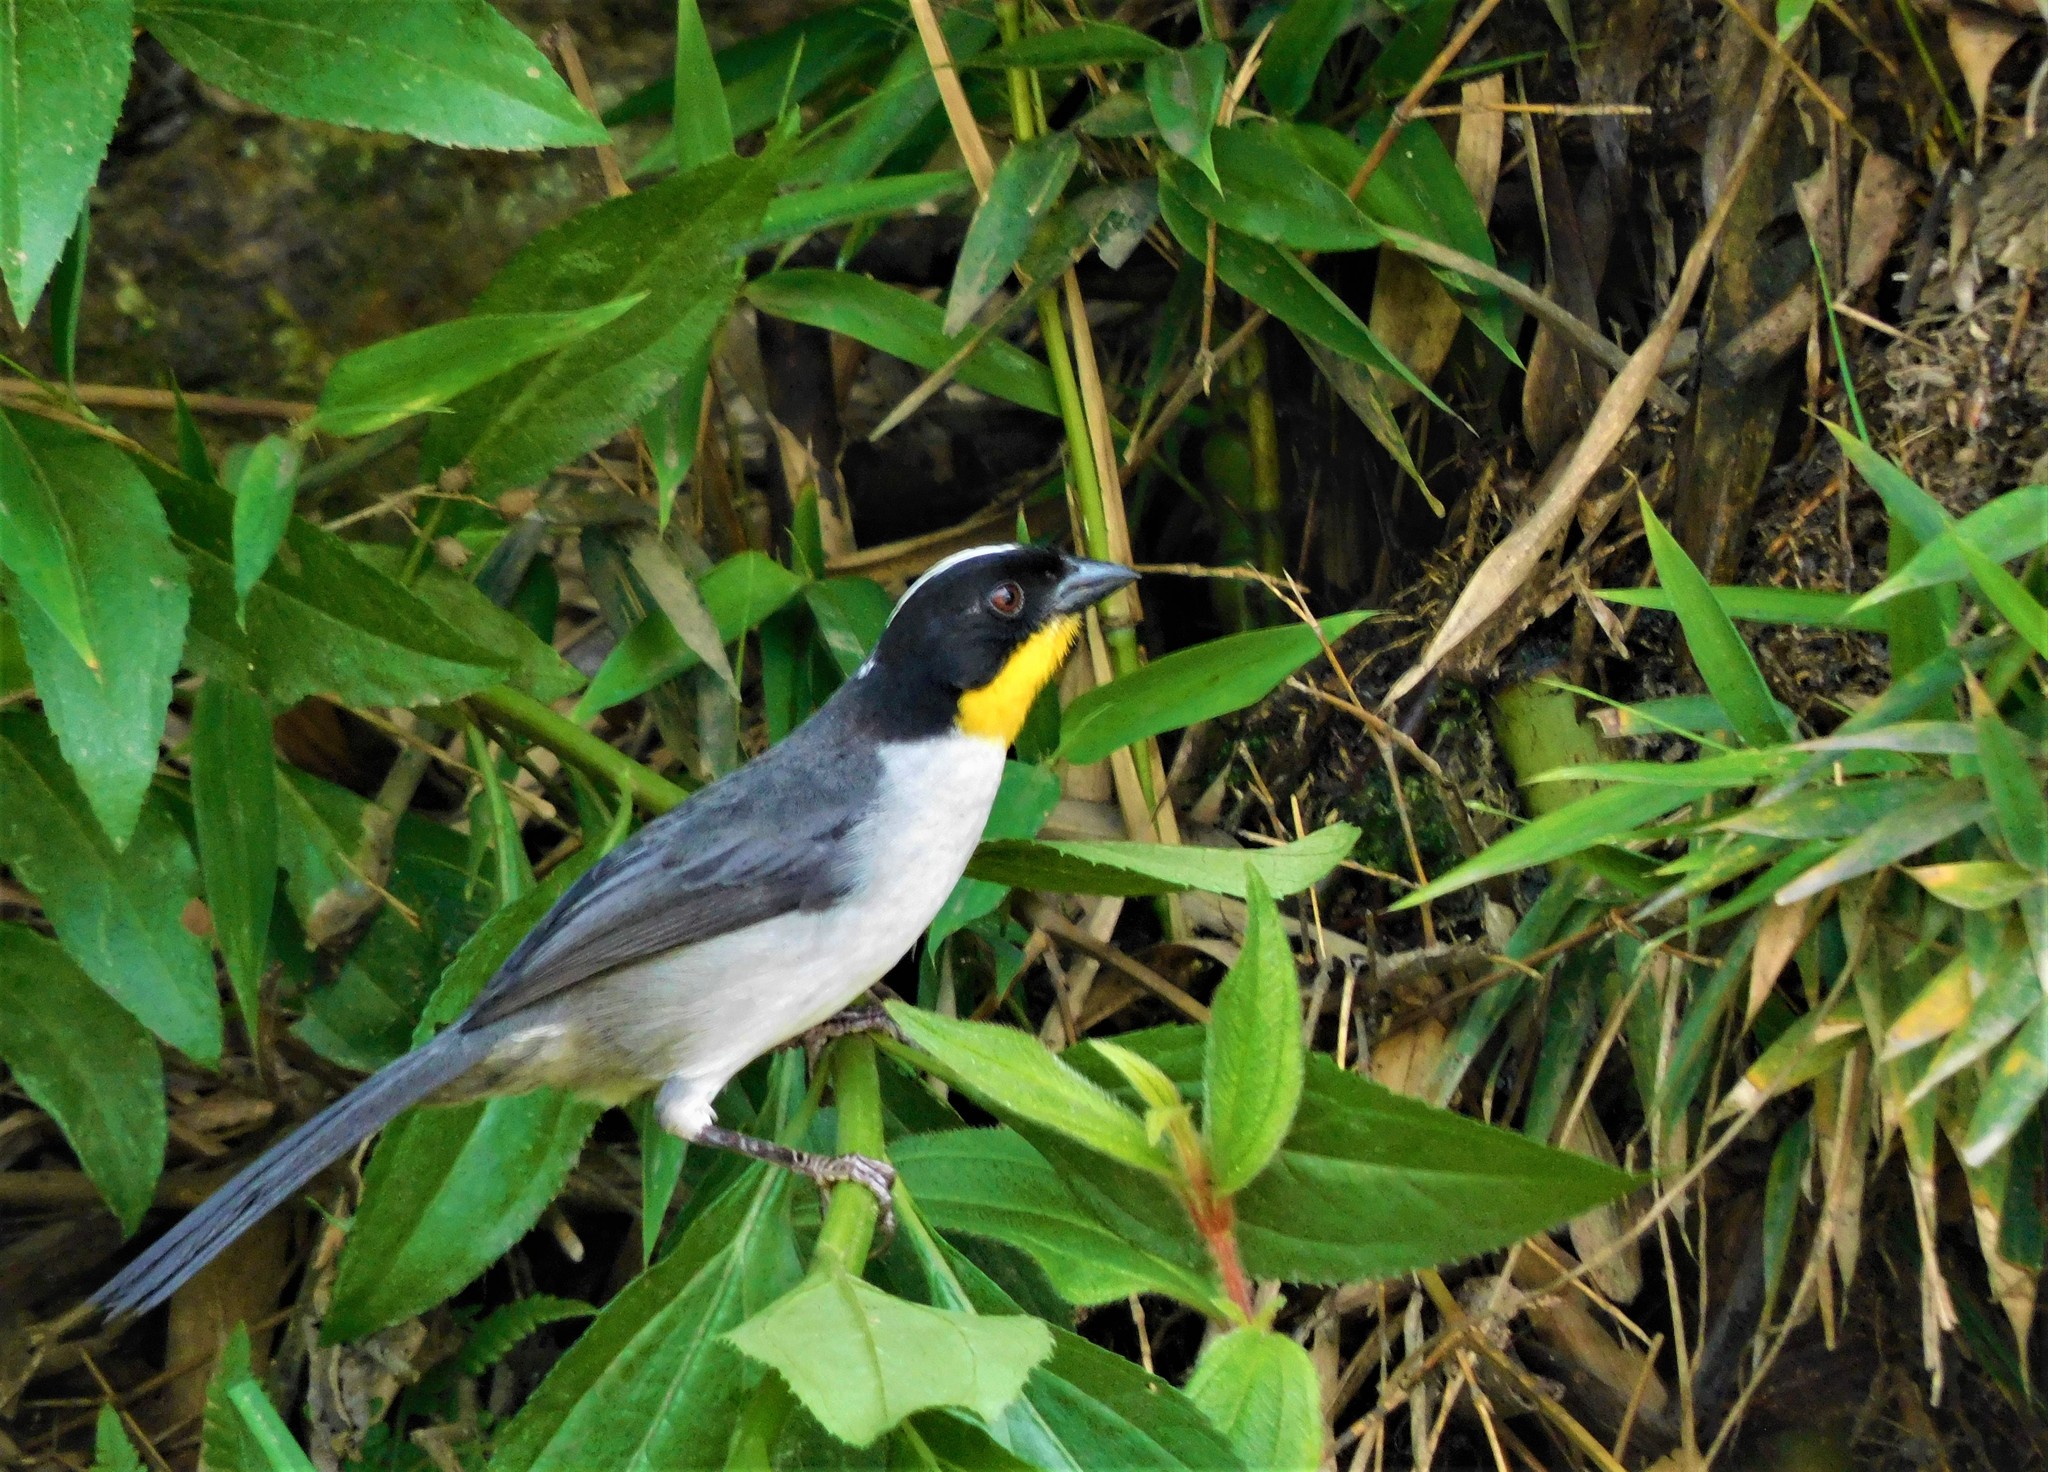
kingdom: Animalia
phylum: Chordata
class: Aves
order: Passeriformes
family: Passerellidae
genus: Atlapetes
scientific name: Atlapetes albinucha
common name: White-naped brush-finch
